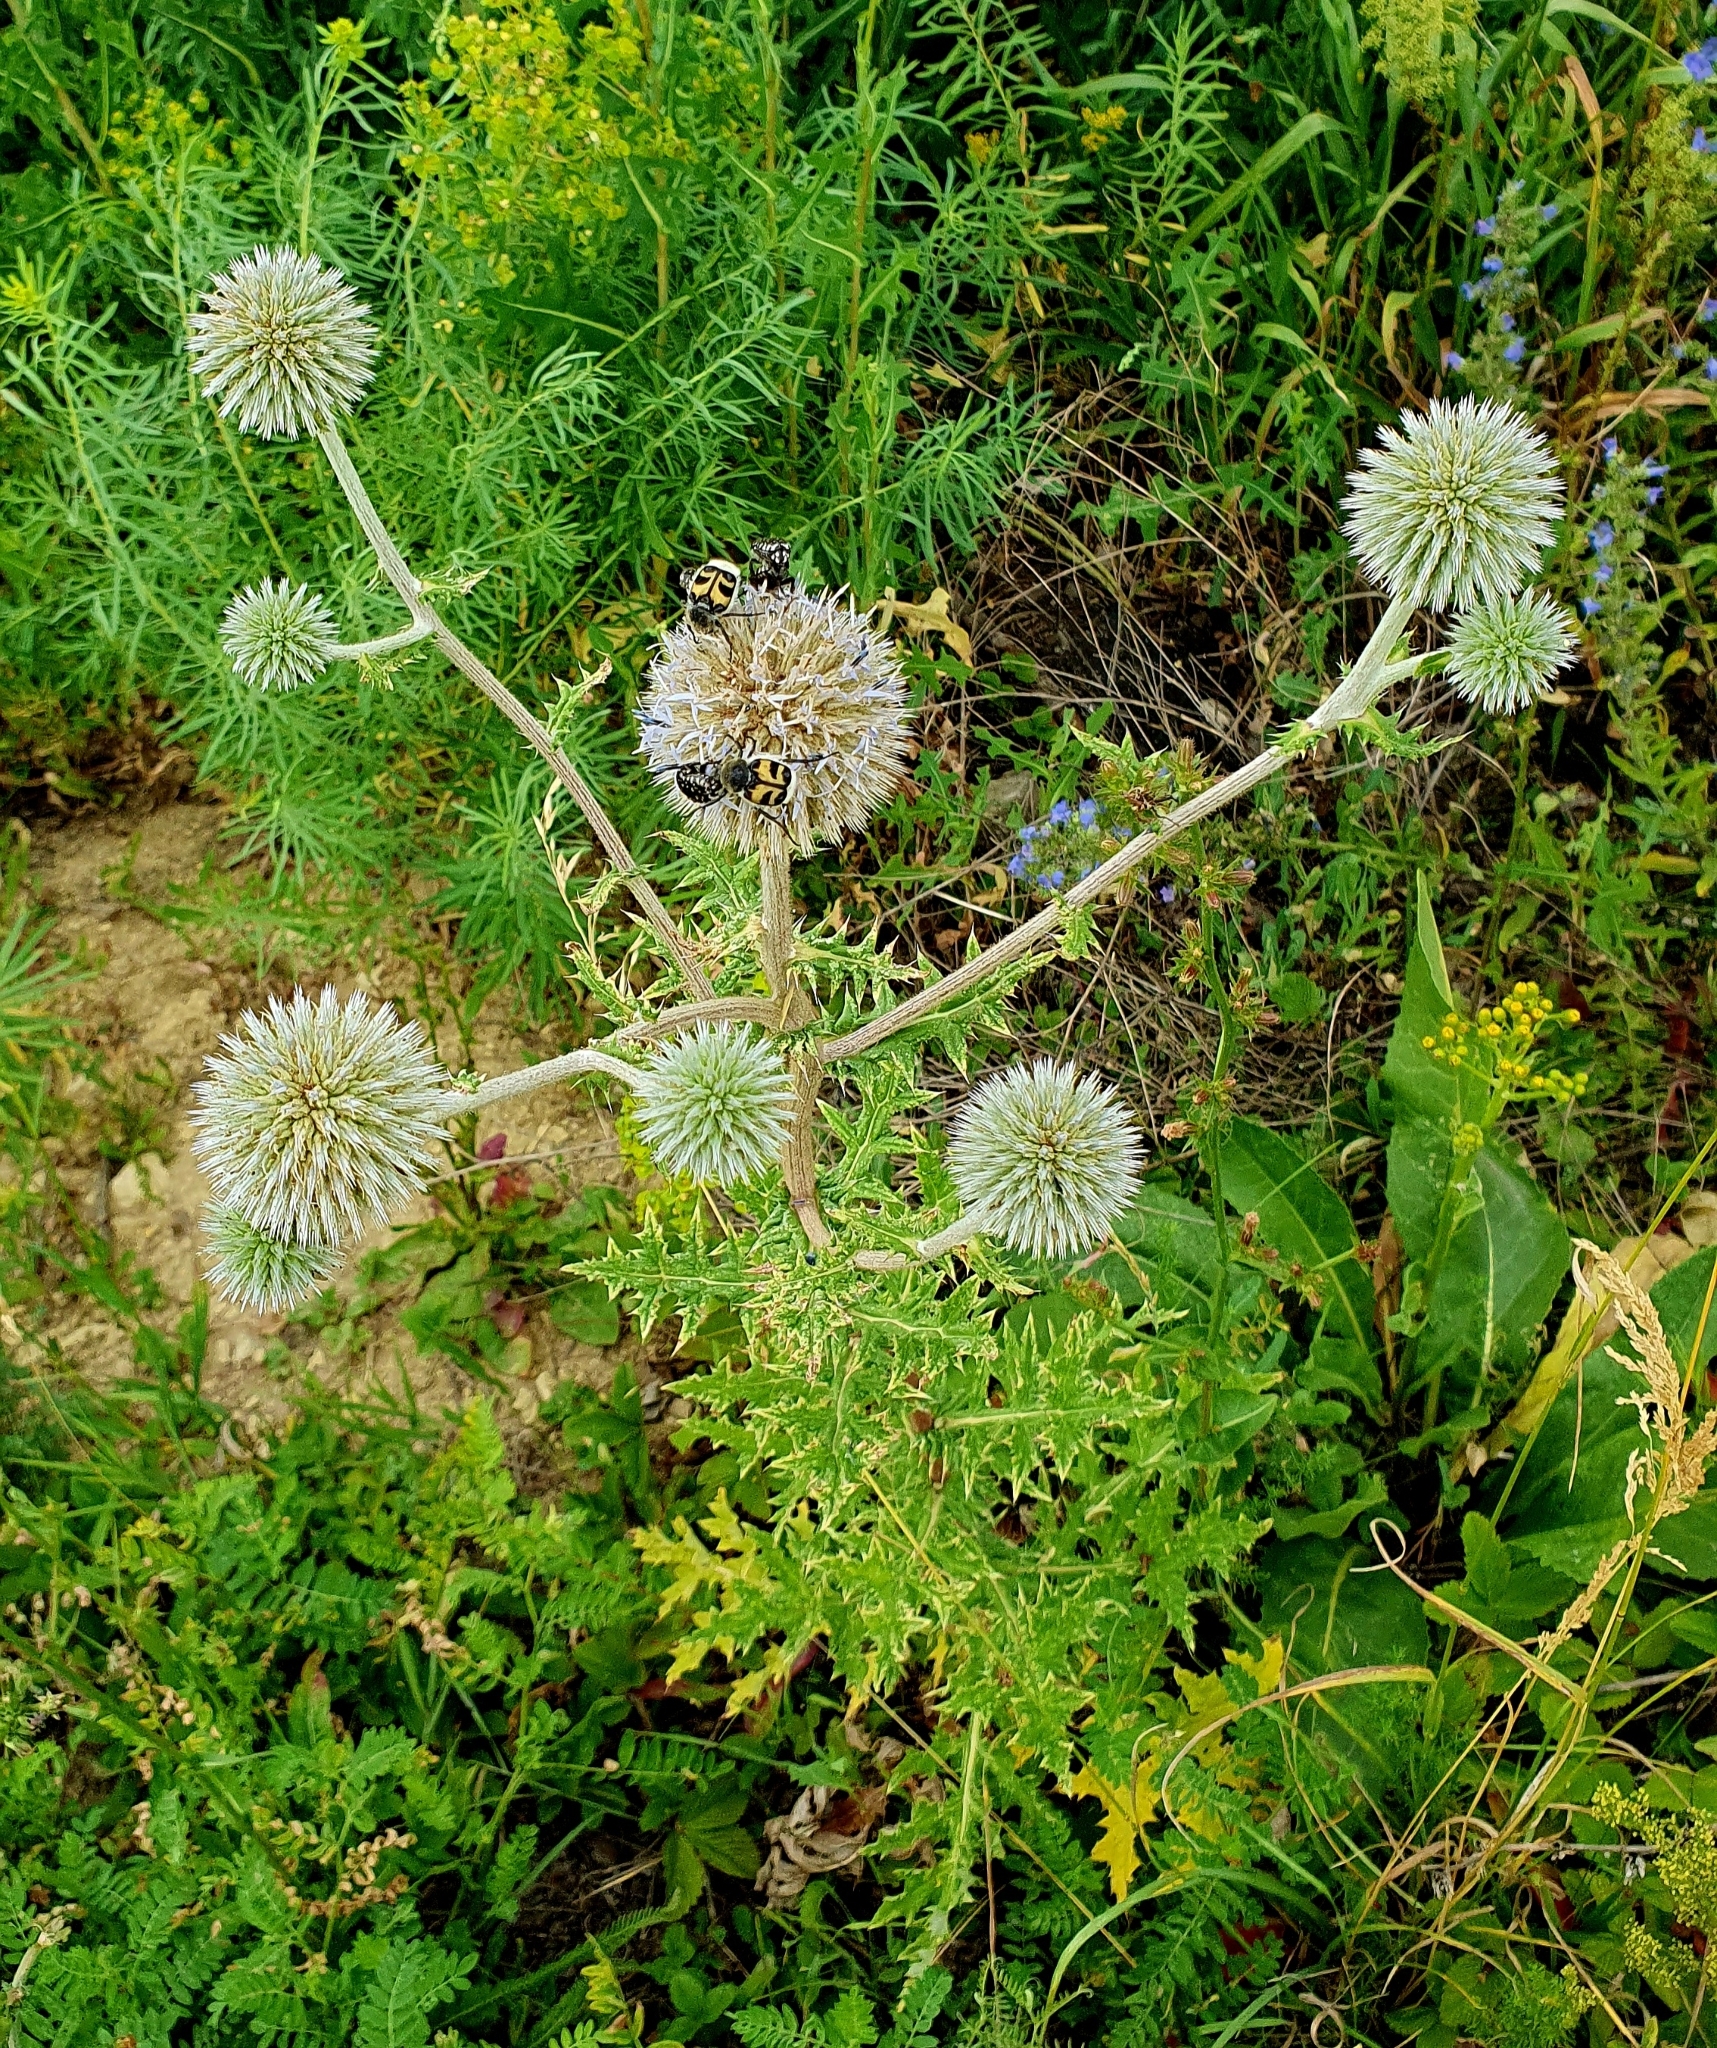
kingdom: Plantae
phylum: Tracheophyta
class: Magnoliopsida
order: Asterales
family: Asteraceae
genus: Echinops
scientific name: Echinops sphaerocephalus
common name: Glandular globe-thistle
